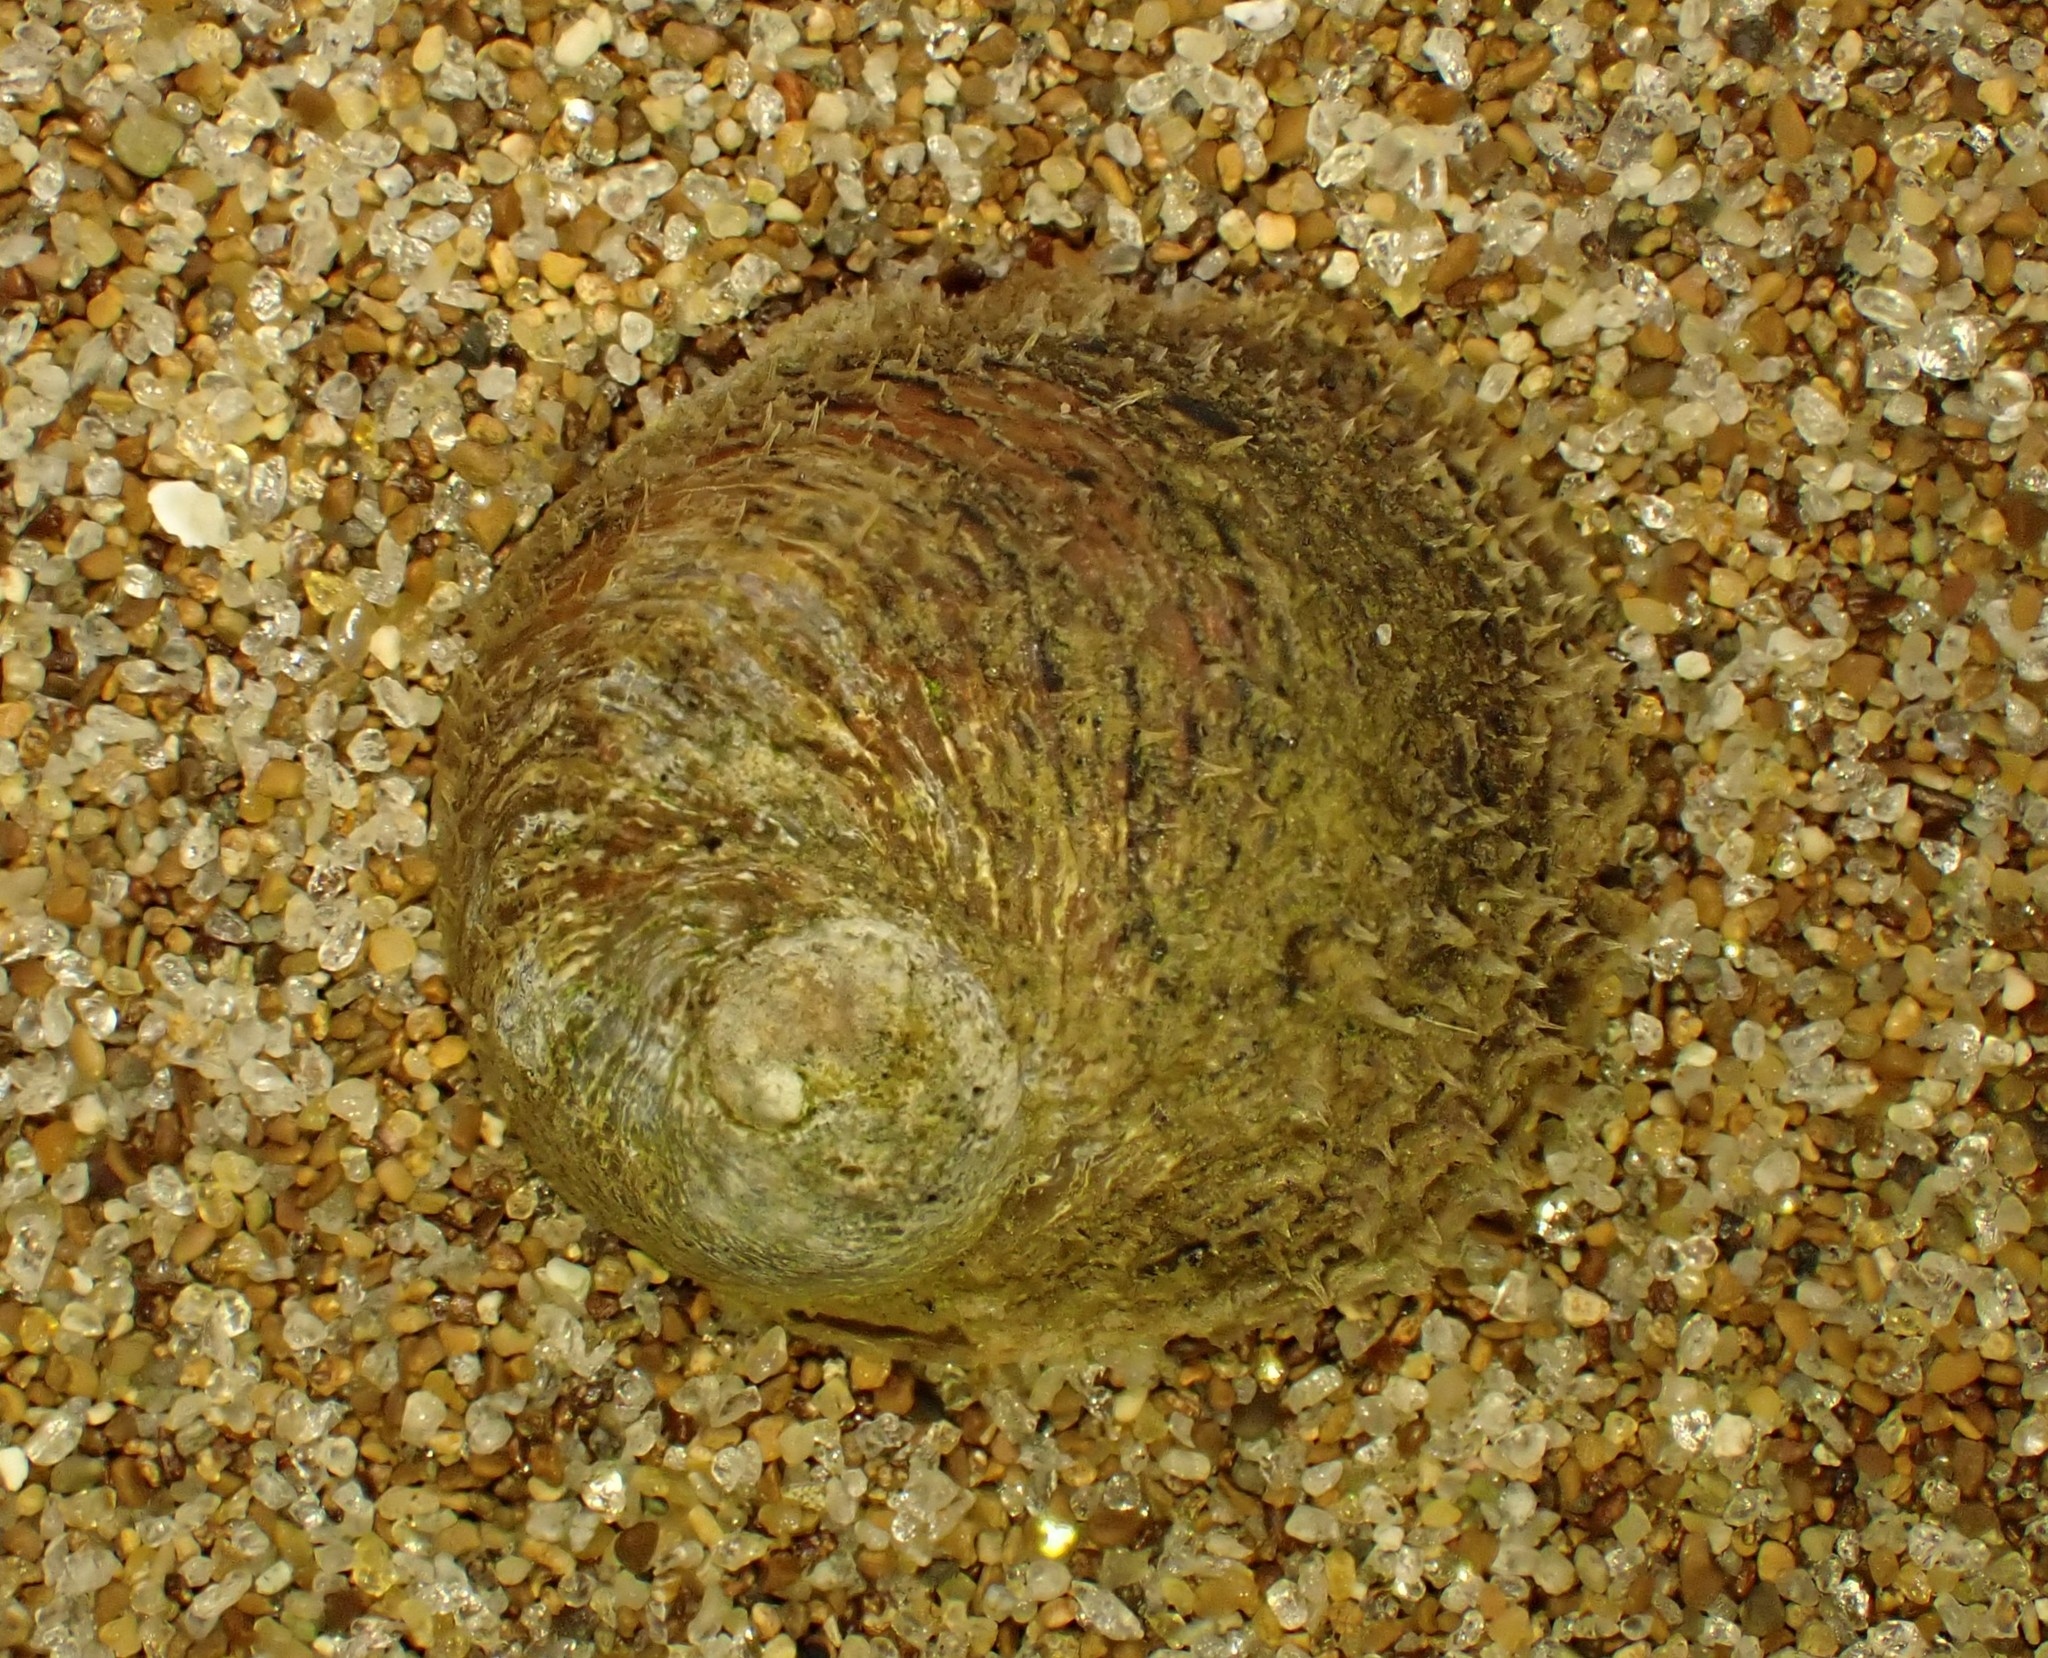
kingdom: Animalia
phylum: Mollusca
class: Gastropoda
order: Littorinimorpha
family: Calyptraeidae
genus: Sigapatella
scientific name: Sigapatella novaezelandiae
